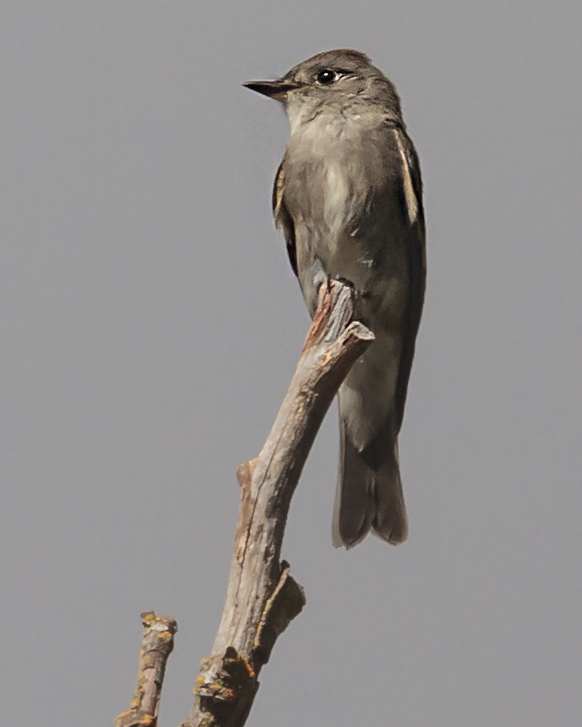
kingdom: Animalia
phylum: Chordata
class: Aves
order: Passeriformes
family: Tyrannidae
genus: Contopus
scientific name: Contopus sordidulus
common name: Western wood-pewee
